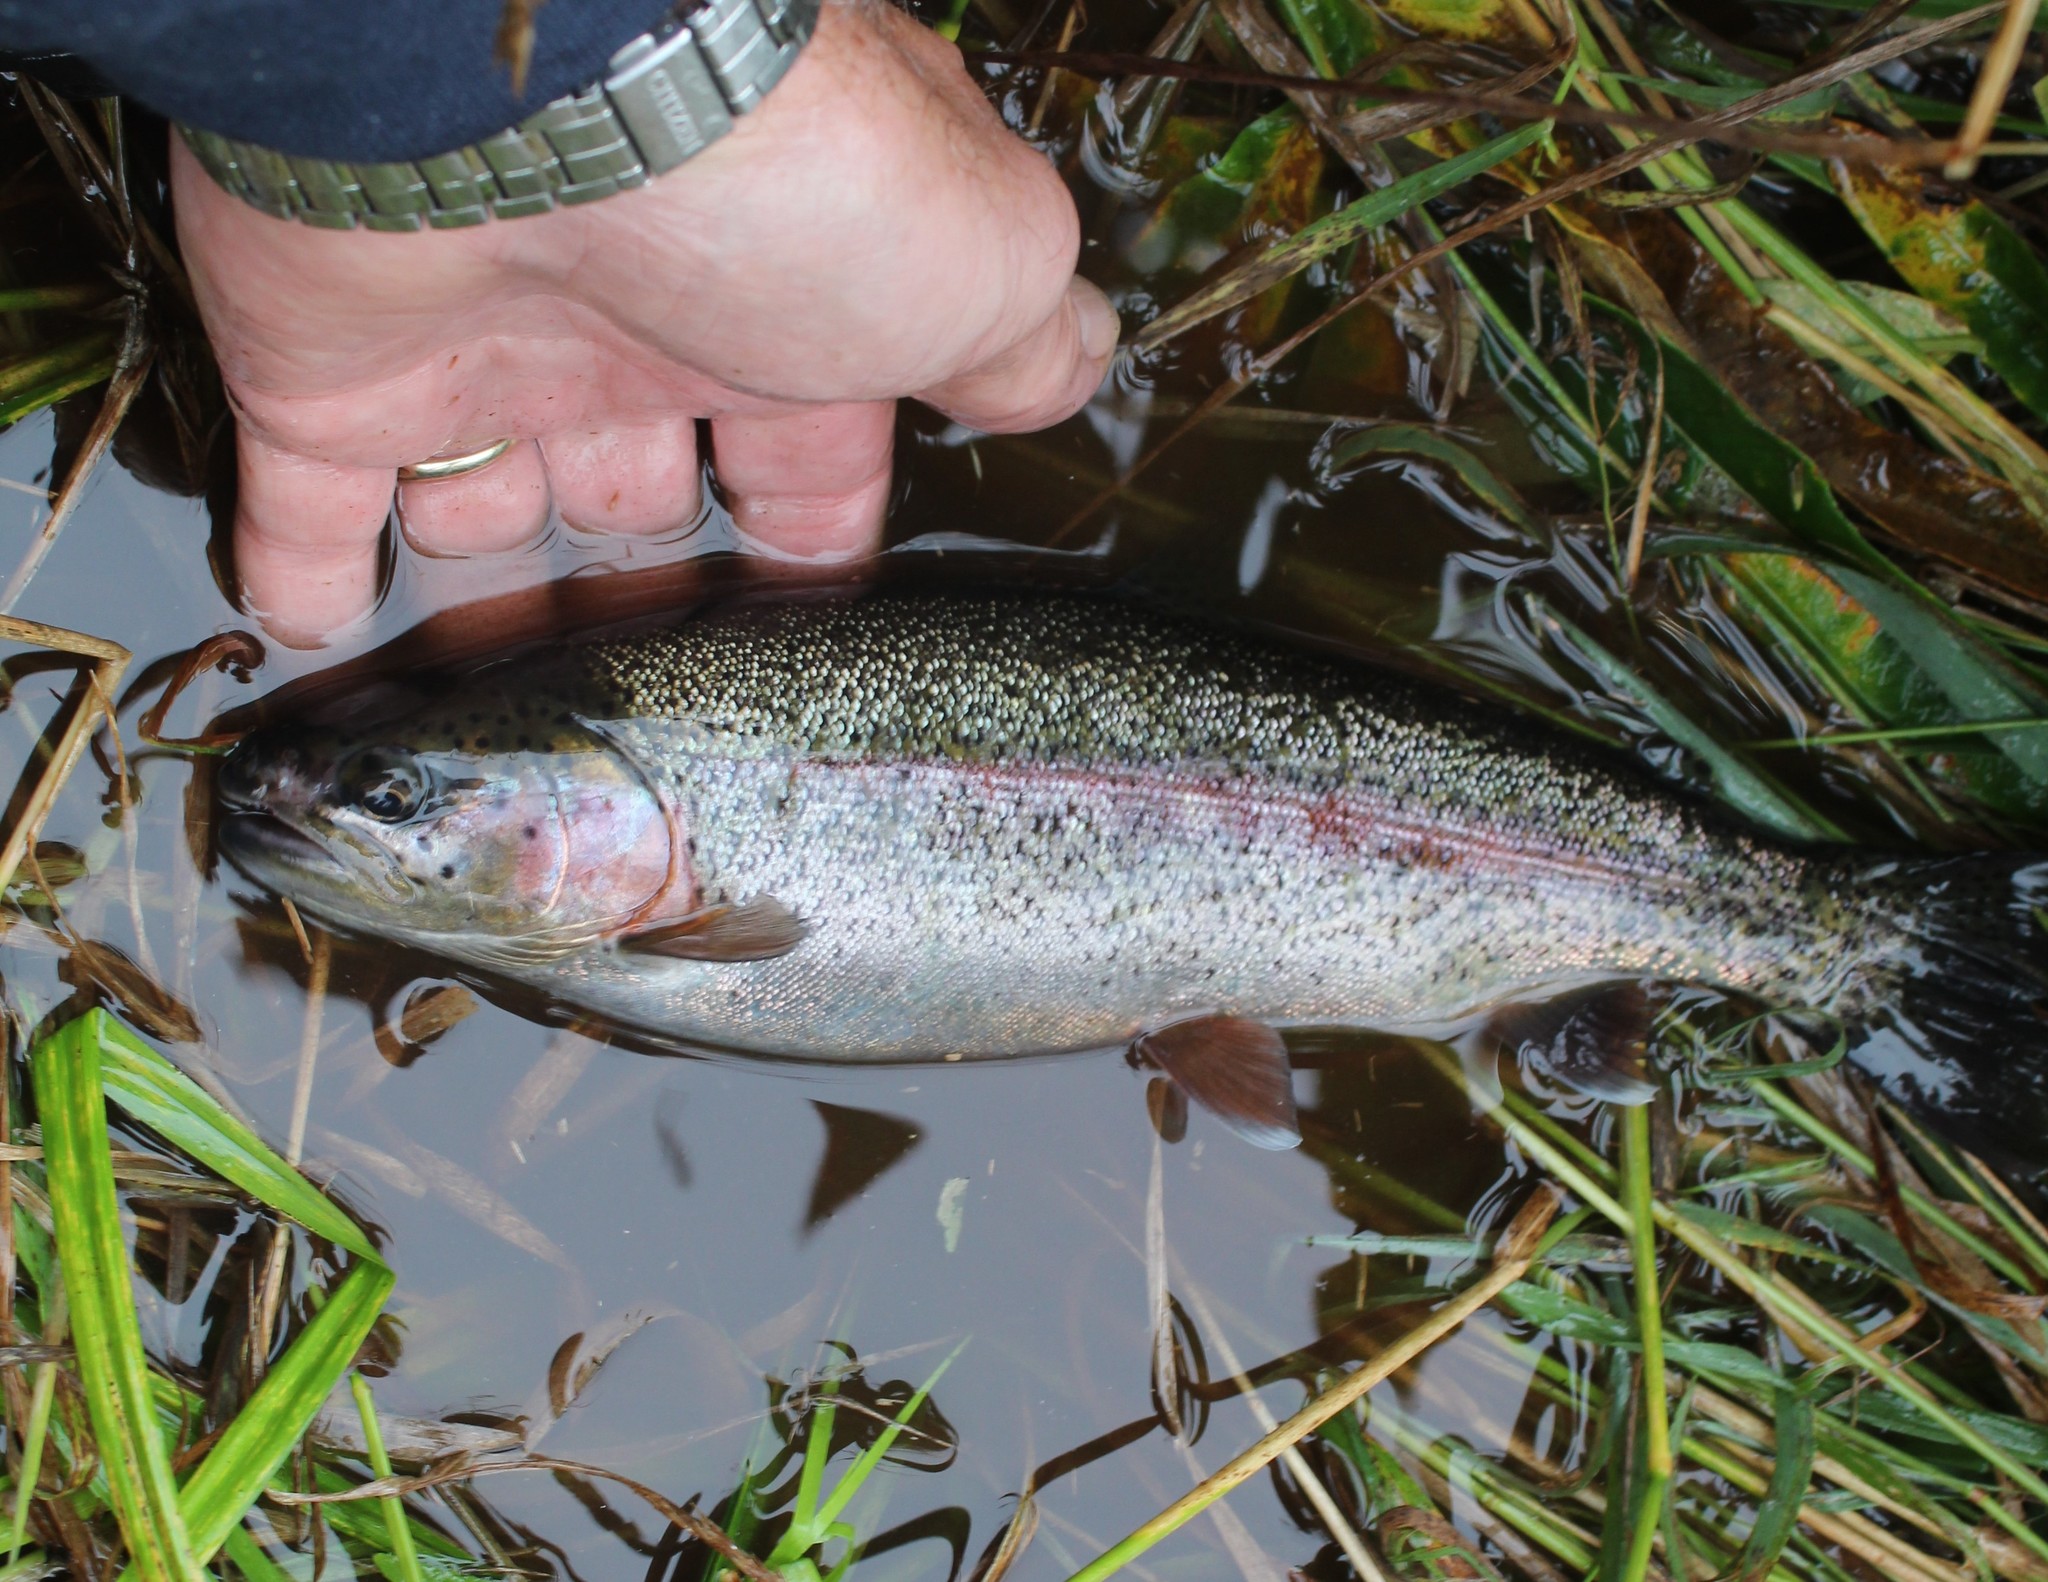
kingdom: Animalia
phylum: Chordata
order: Salmoniformes
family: Salmonidae
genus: Oncorhynchus
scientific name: Oncorhynchus mykiss
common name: Rainbow trout
